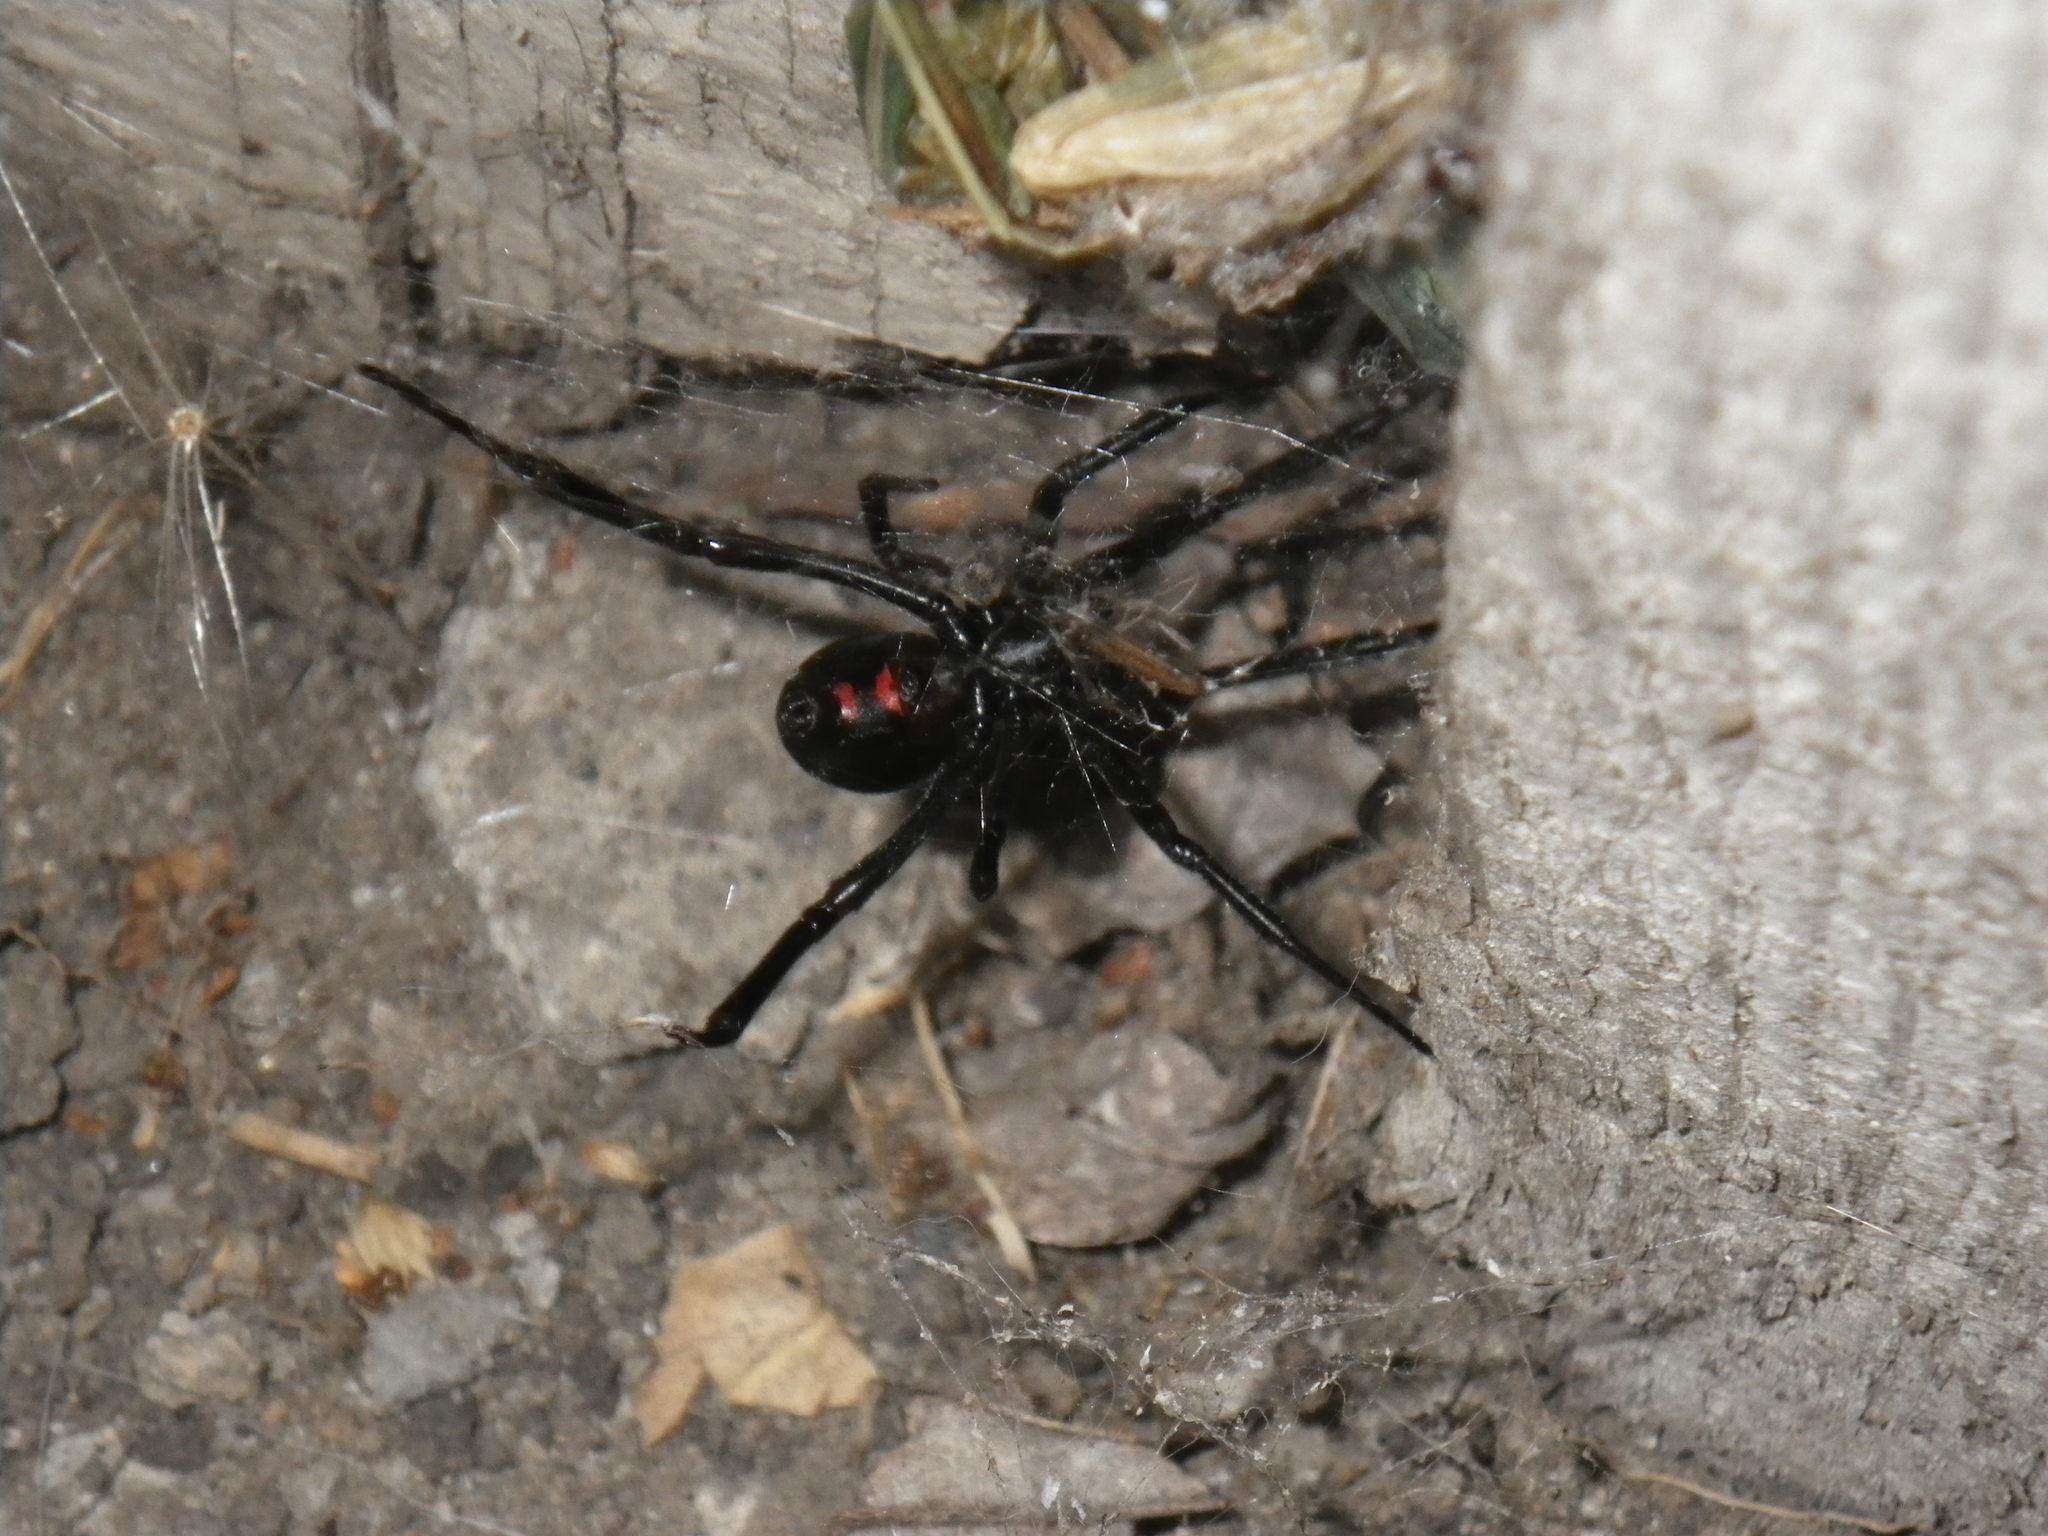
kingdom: Animalia
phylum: Arthropoda
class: Arachnida
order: Araneae
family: Theridiidae
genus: Latrodectus
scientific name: Latrodectus hesperus
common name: Western black widow
